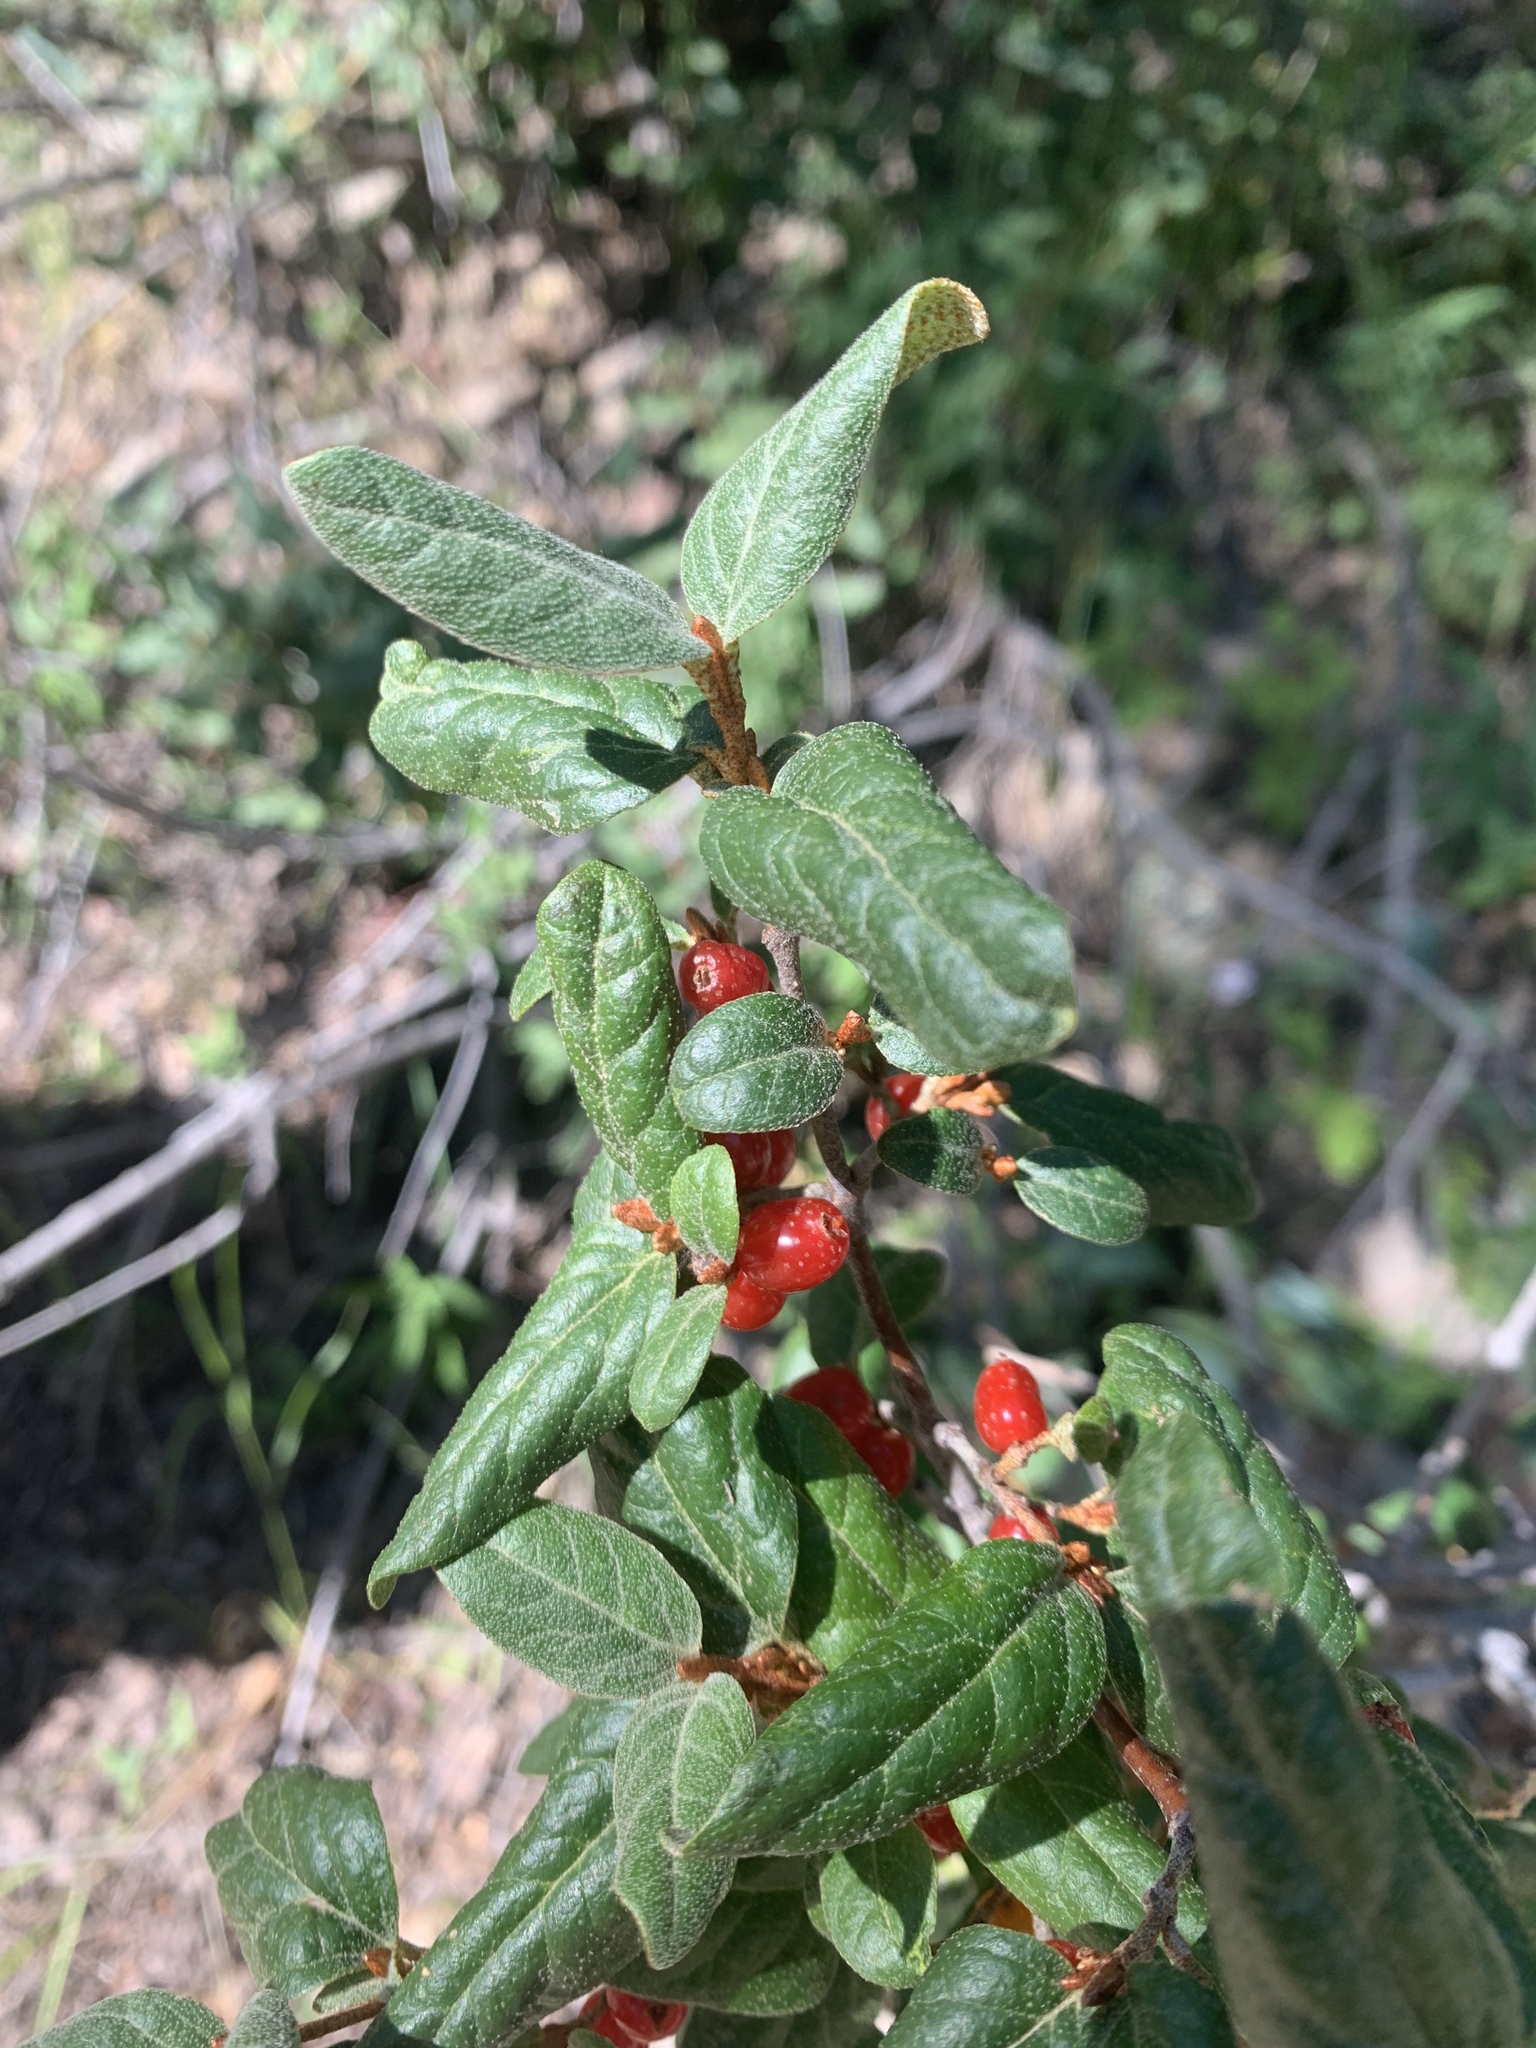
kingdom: Plantae
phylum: Tracheophyta
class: Magnoliopsida
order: Rosales
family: Elaeagnaceae
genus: Shepherdia
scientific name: Shepherdia canadensis
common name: Soapberry
